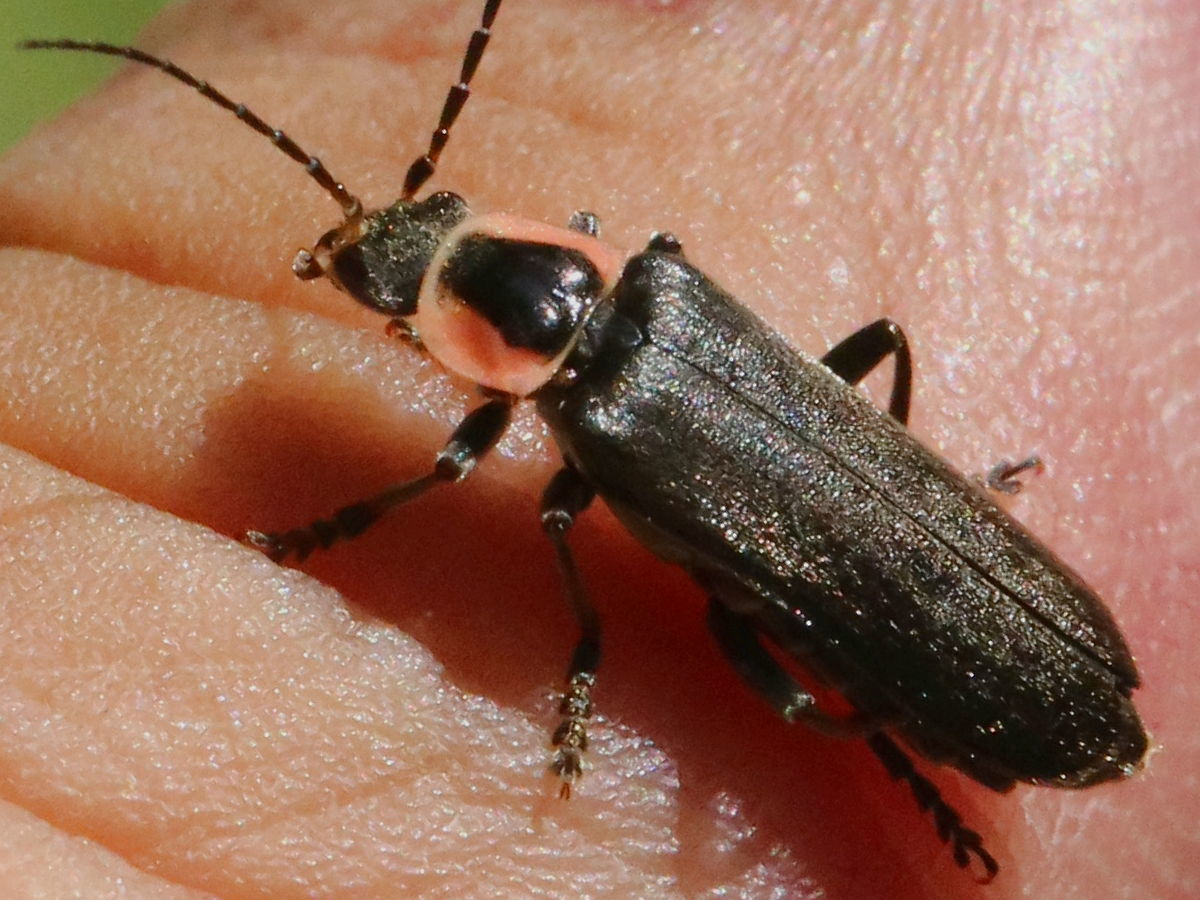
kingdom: Animalia
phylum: Arthropoda
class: Insecta
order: Coleoptera
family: Cantharidae
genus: Rhaxonycha
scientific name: Rhaxonycha carolina
